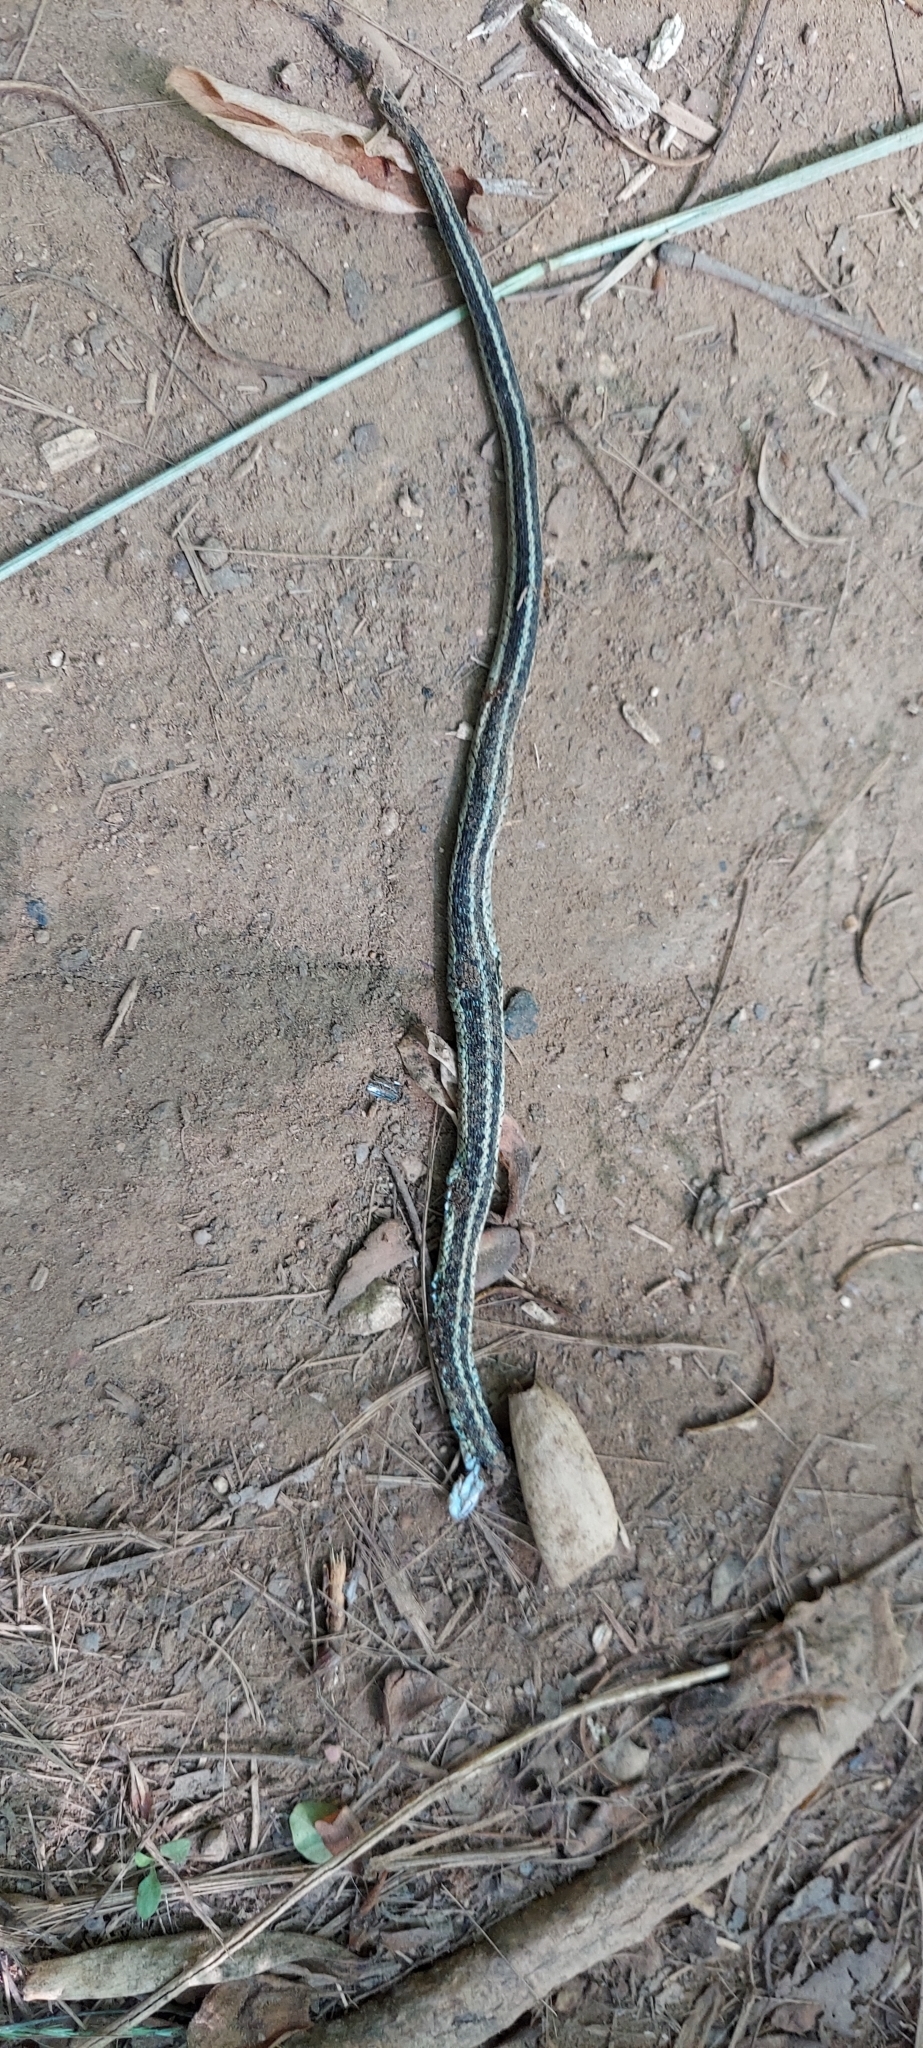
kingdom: Animalia
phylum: Chordata
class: Squamata
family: Colubridae
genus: Thamnophis
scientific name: Thamnophis sirtalis
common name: Common garter snake
